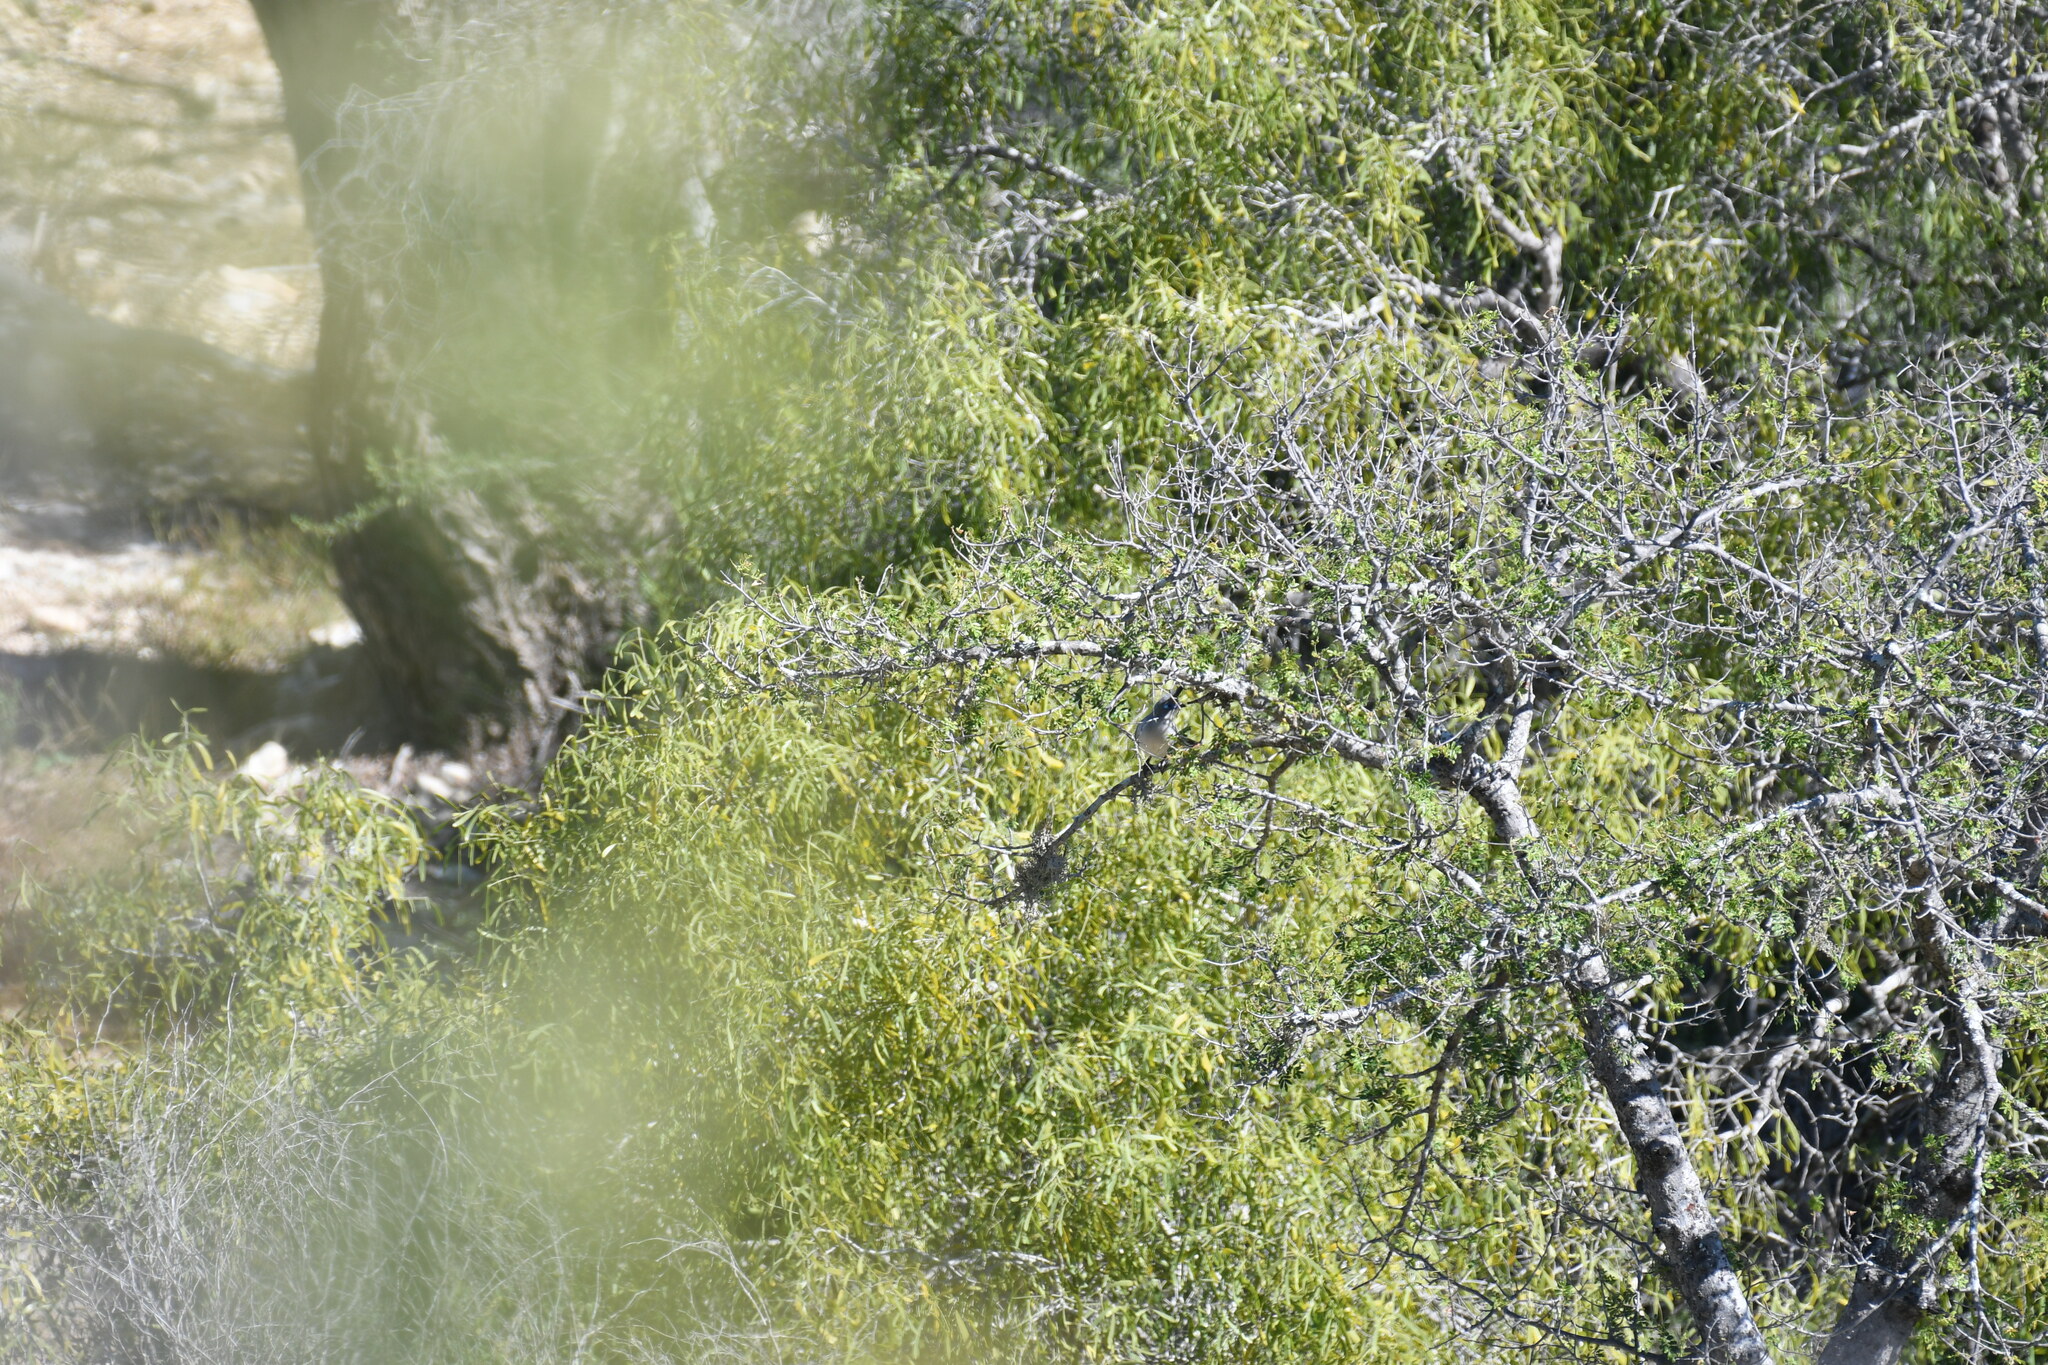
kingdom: Animalia
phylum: Chordata
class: Aves
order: Cuculiformes
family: Cuculidae
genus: Coua
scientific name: Coua verreauxi
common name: Verreaux's coua
